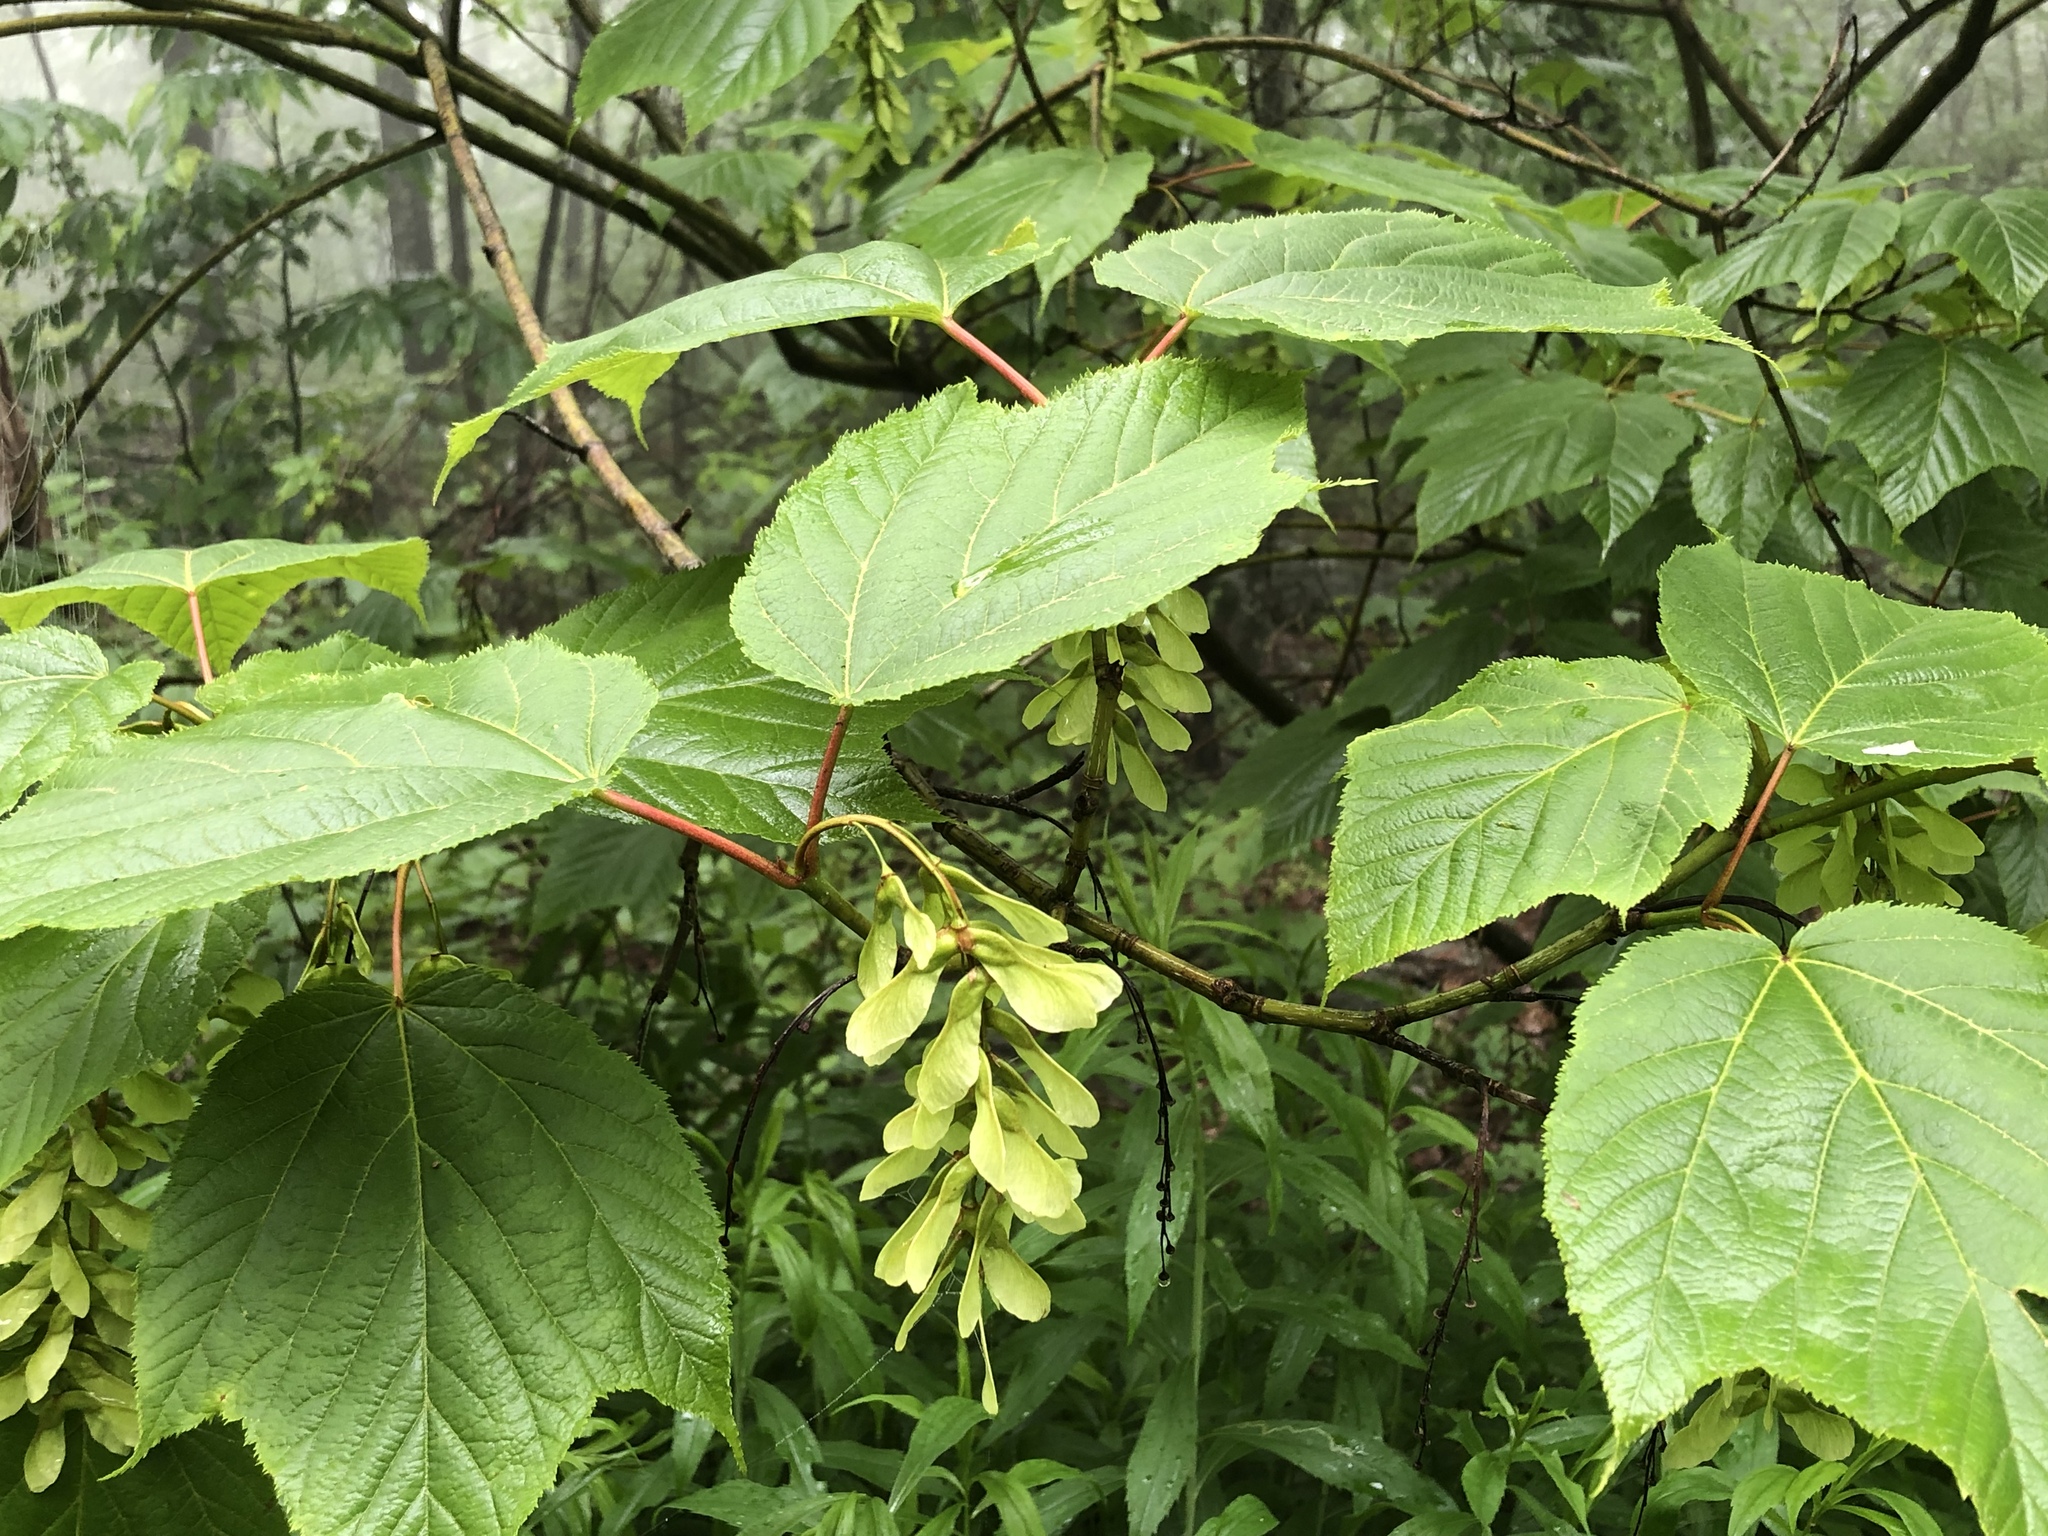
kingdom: Plantae
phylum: Tracheophyta
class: Magnoliopsida
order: Sapindales
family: Sapindaceae
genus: Acer
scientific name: Acer pensylvanicum
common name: Moosewood
